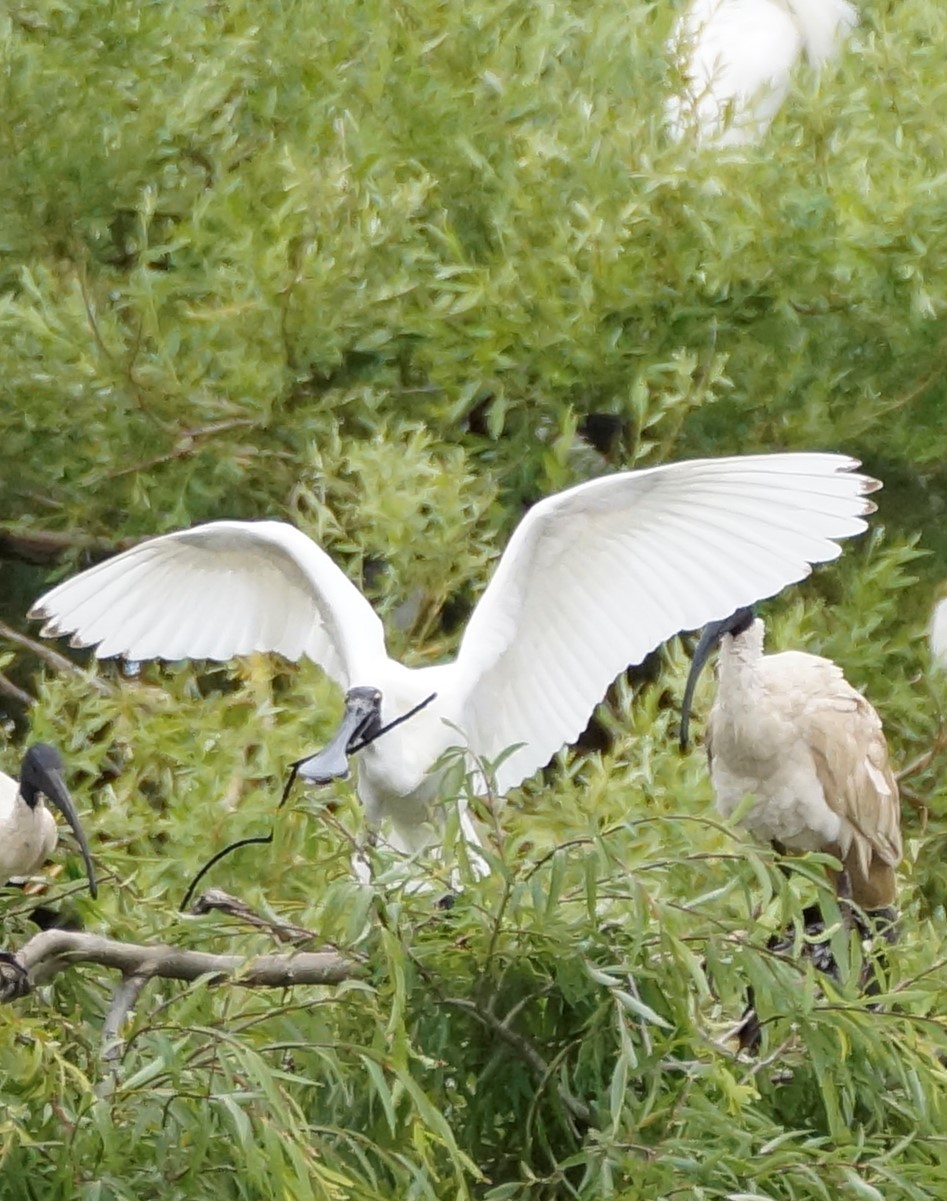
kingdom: Animalia
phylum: Chordata
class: Aves
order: Pelecaniformes
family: Threskiornithidae
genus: Platalea
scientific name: Platalea regia
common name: Royal spoonbill
